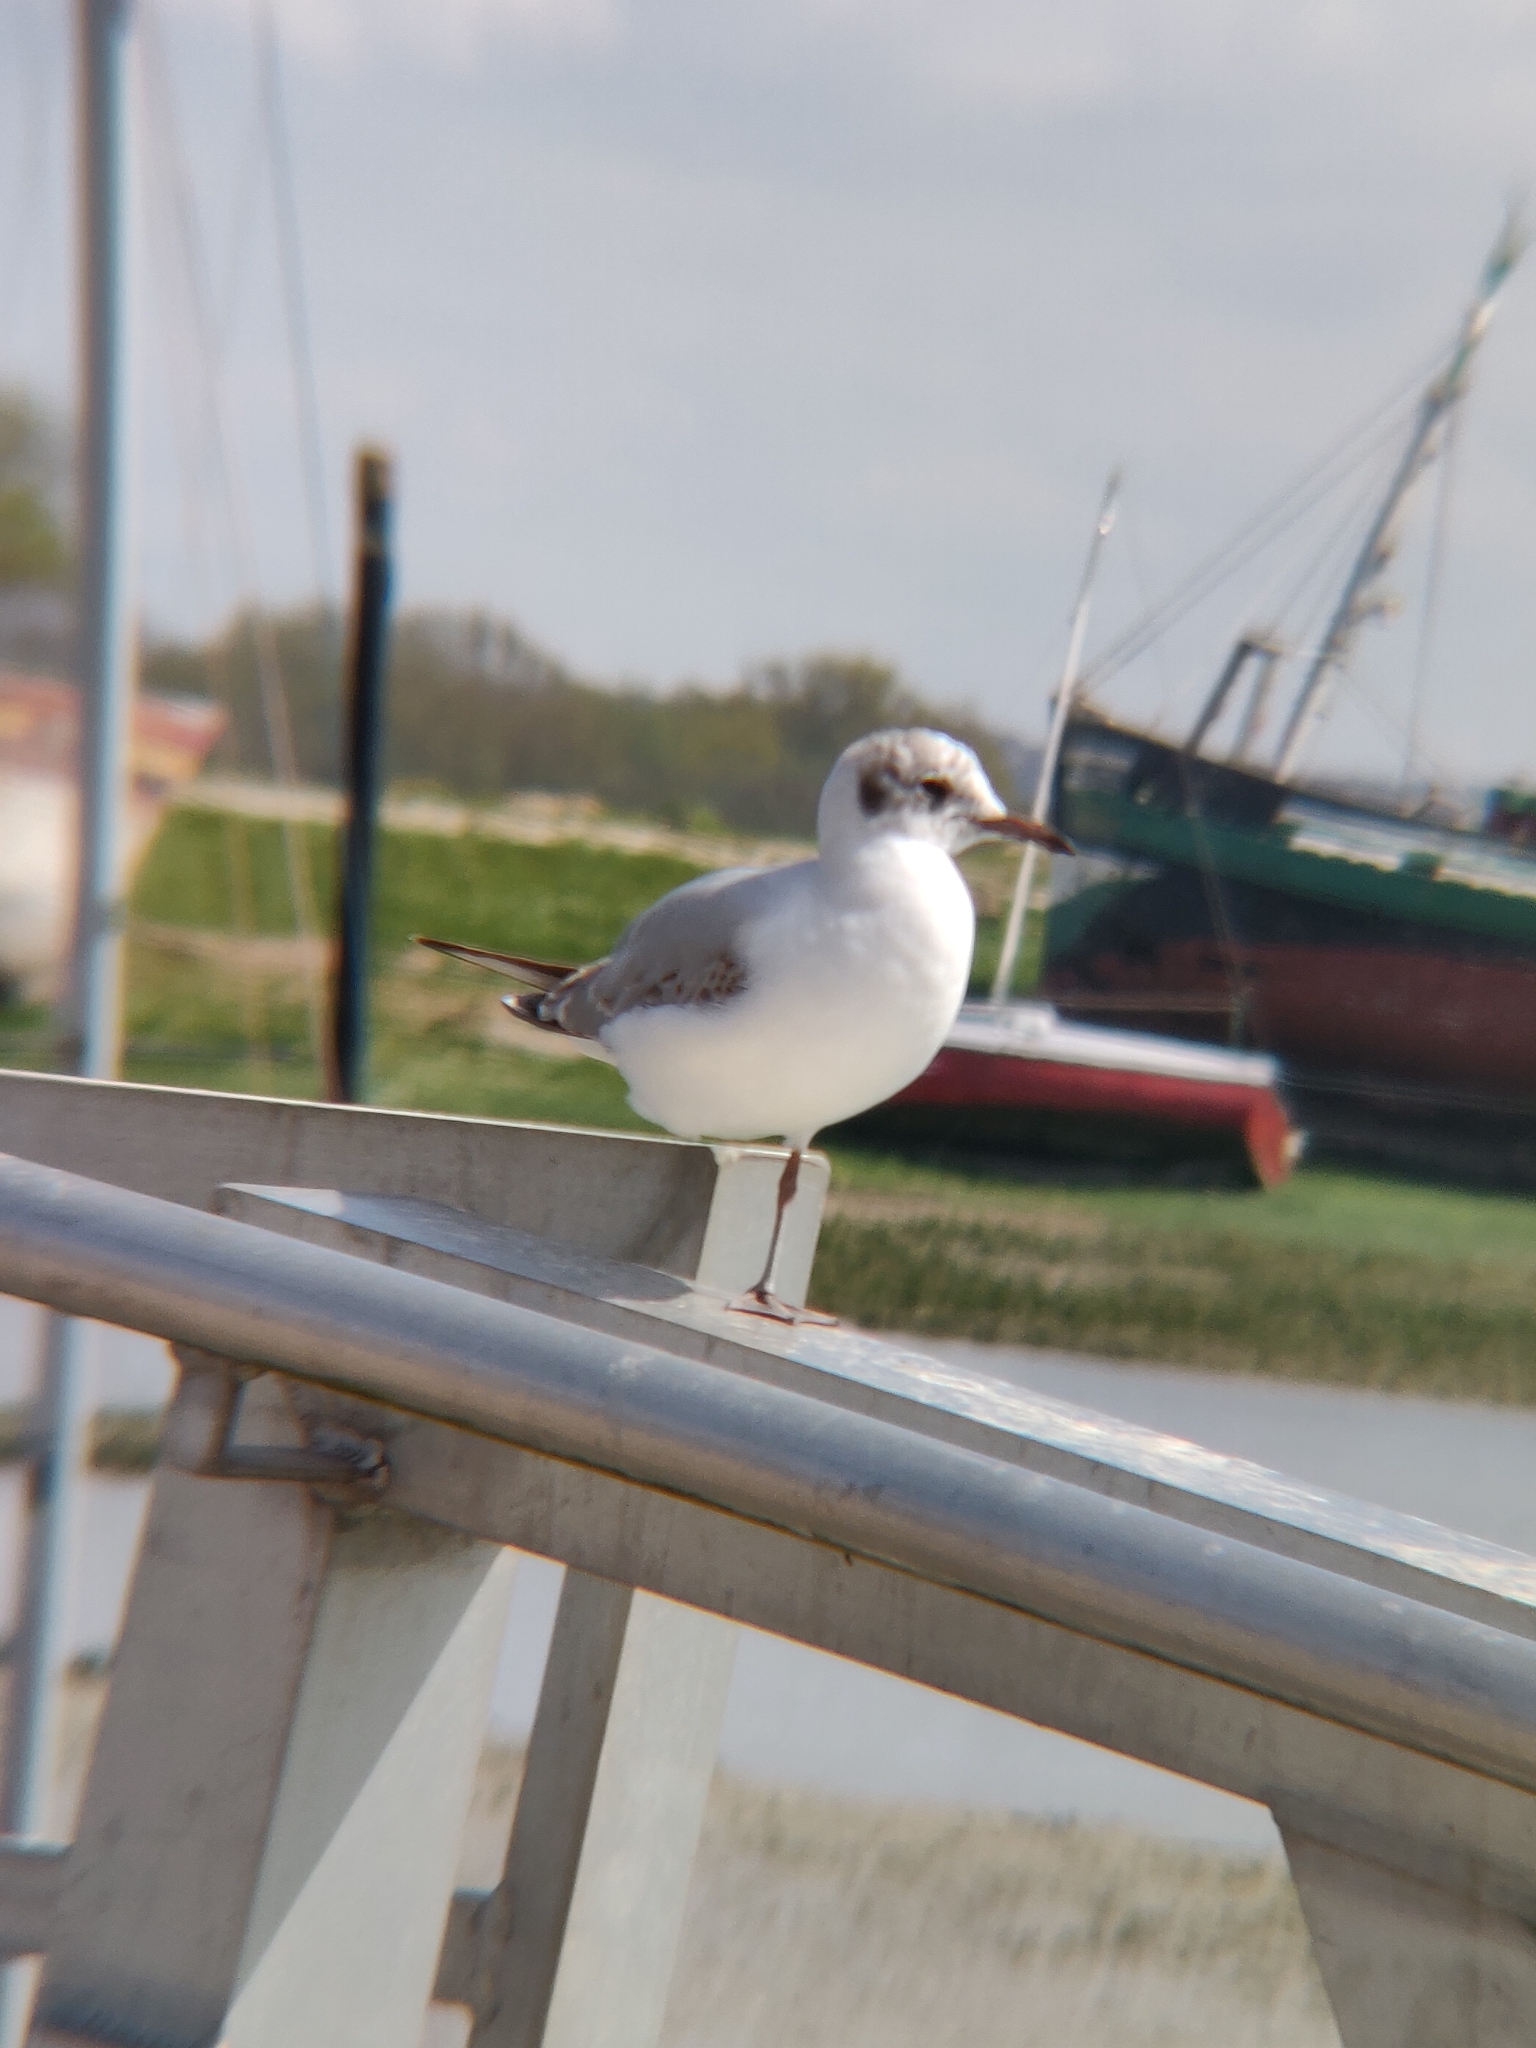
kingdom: Animalia
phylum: Chordata
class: Aves
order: Charadriiformes
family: Laridae
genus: Chroicocephalus
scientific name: Chroicocephalus ridibundus
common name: Black-headed gull
